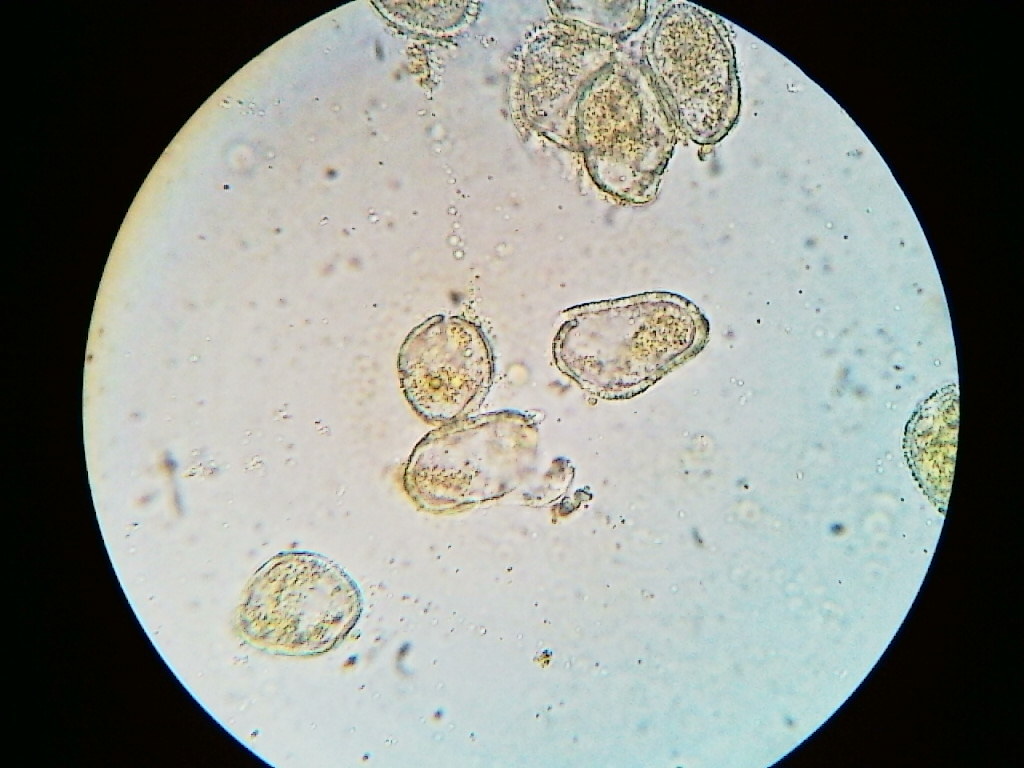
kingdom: Fungi
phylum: Basidiomycota
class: Pucciniomycetes
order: Pucciniales
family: Pucciniaceae
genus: Puccinia
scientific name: Puccinia violae
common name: Violet rust
